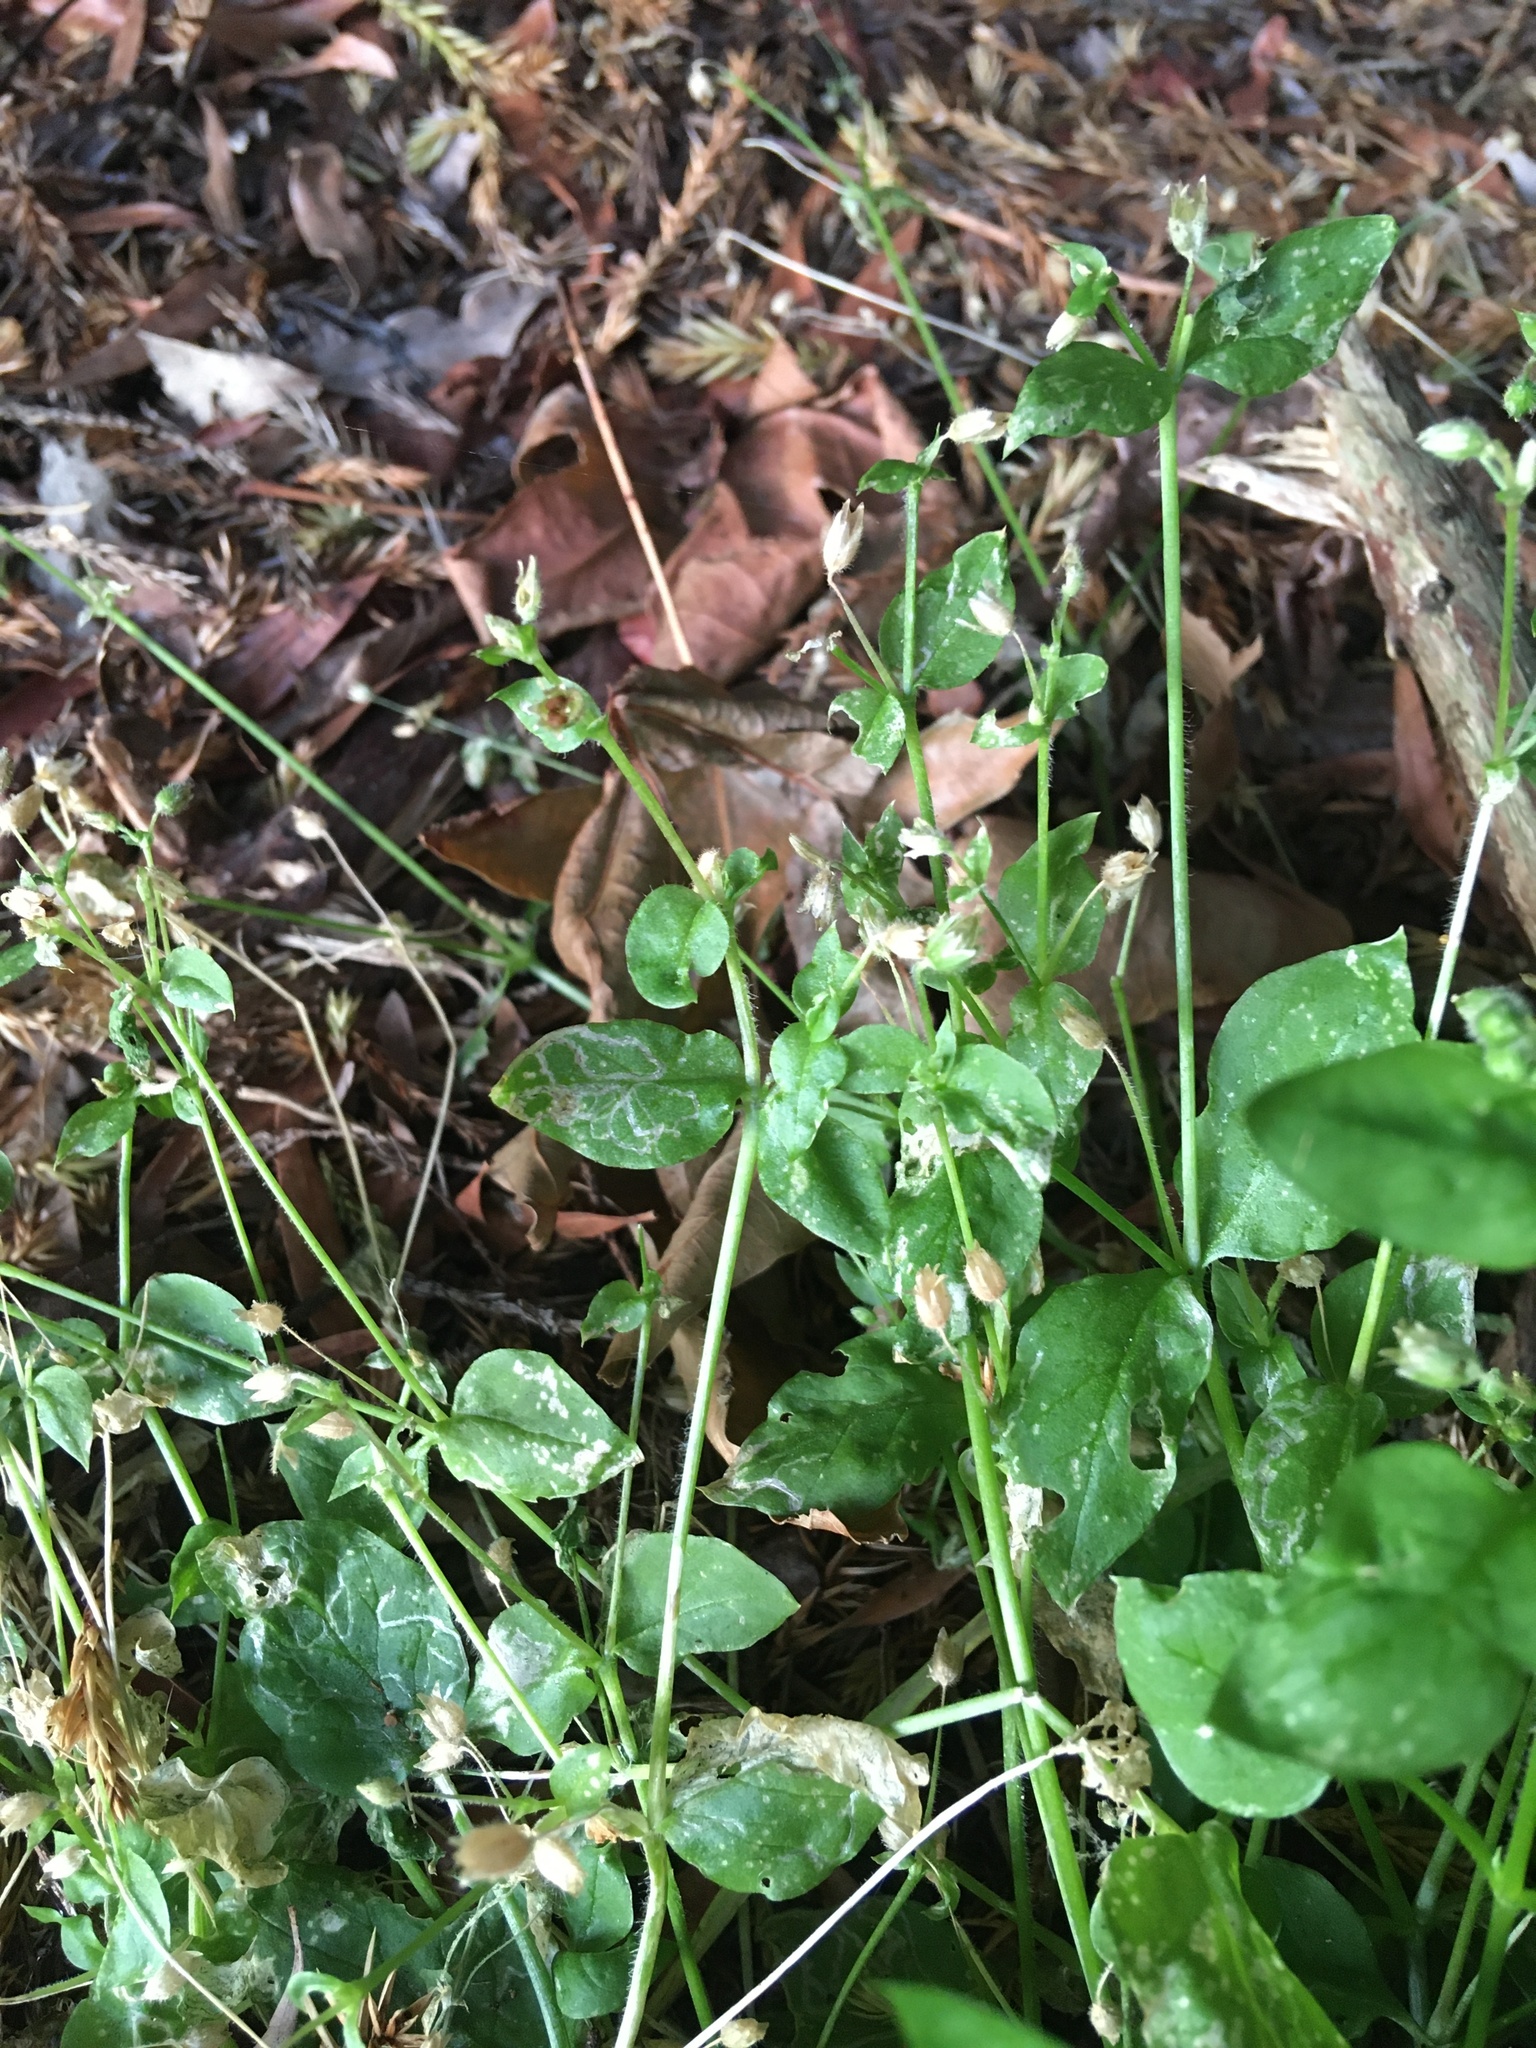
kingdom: Plantae
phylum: Tracheophyta
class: Magnoliopsida
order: Caryophyllales
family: Caryophyllaceae
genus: Stellaria
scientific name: Stellaria media
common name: Common chickweed
